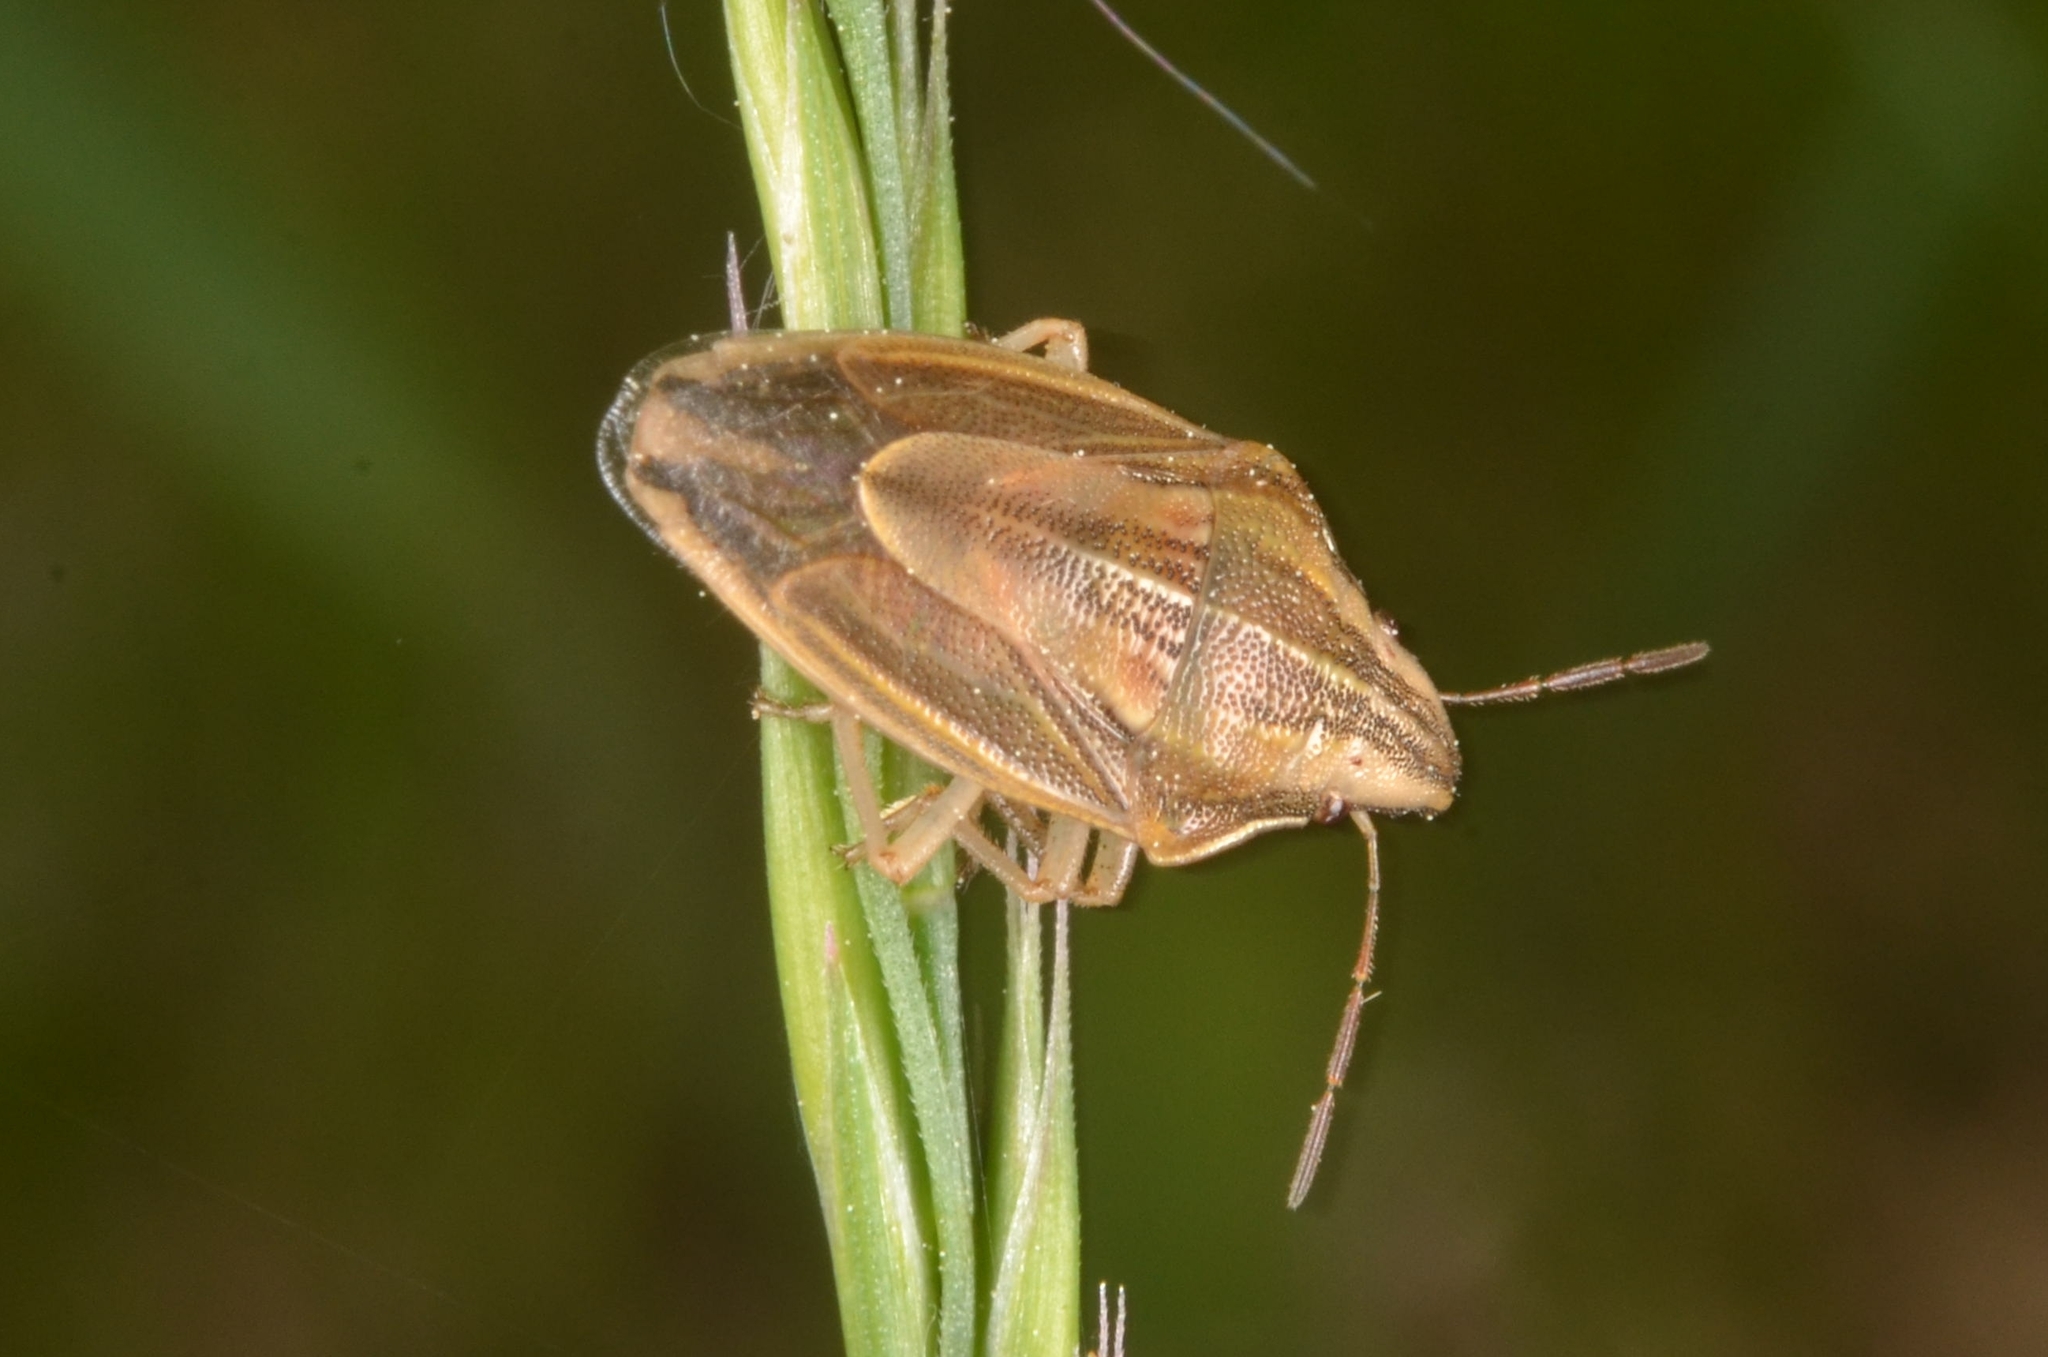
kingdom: Animalia
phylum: Arthropoda
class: Insecta
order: Hemiptera
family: Pentatomidae
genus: Aelia
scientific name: Aelia acuminata
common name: Bishop's mitre
